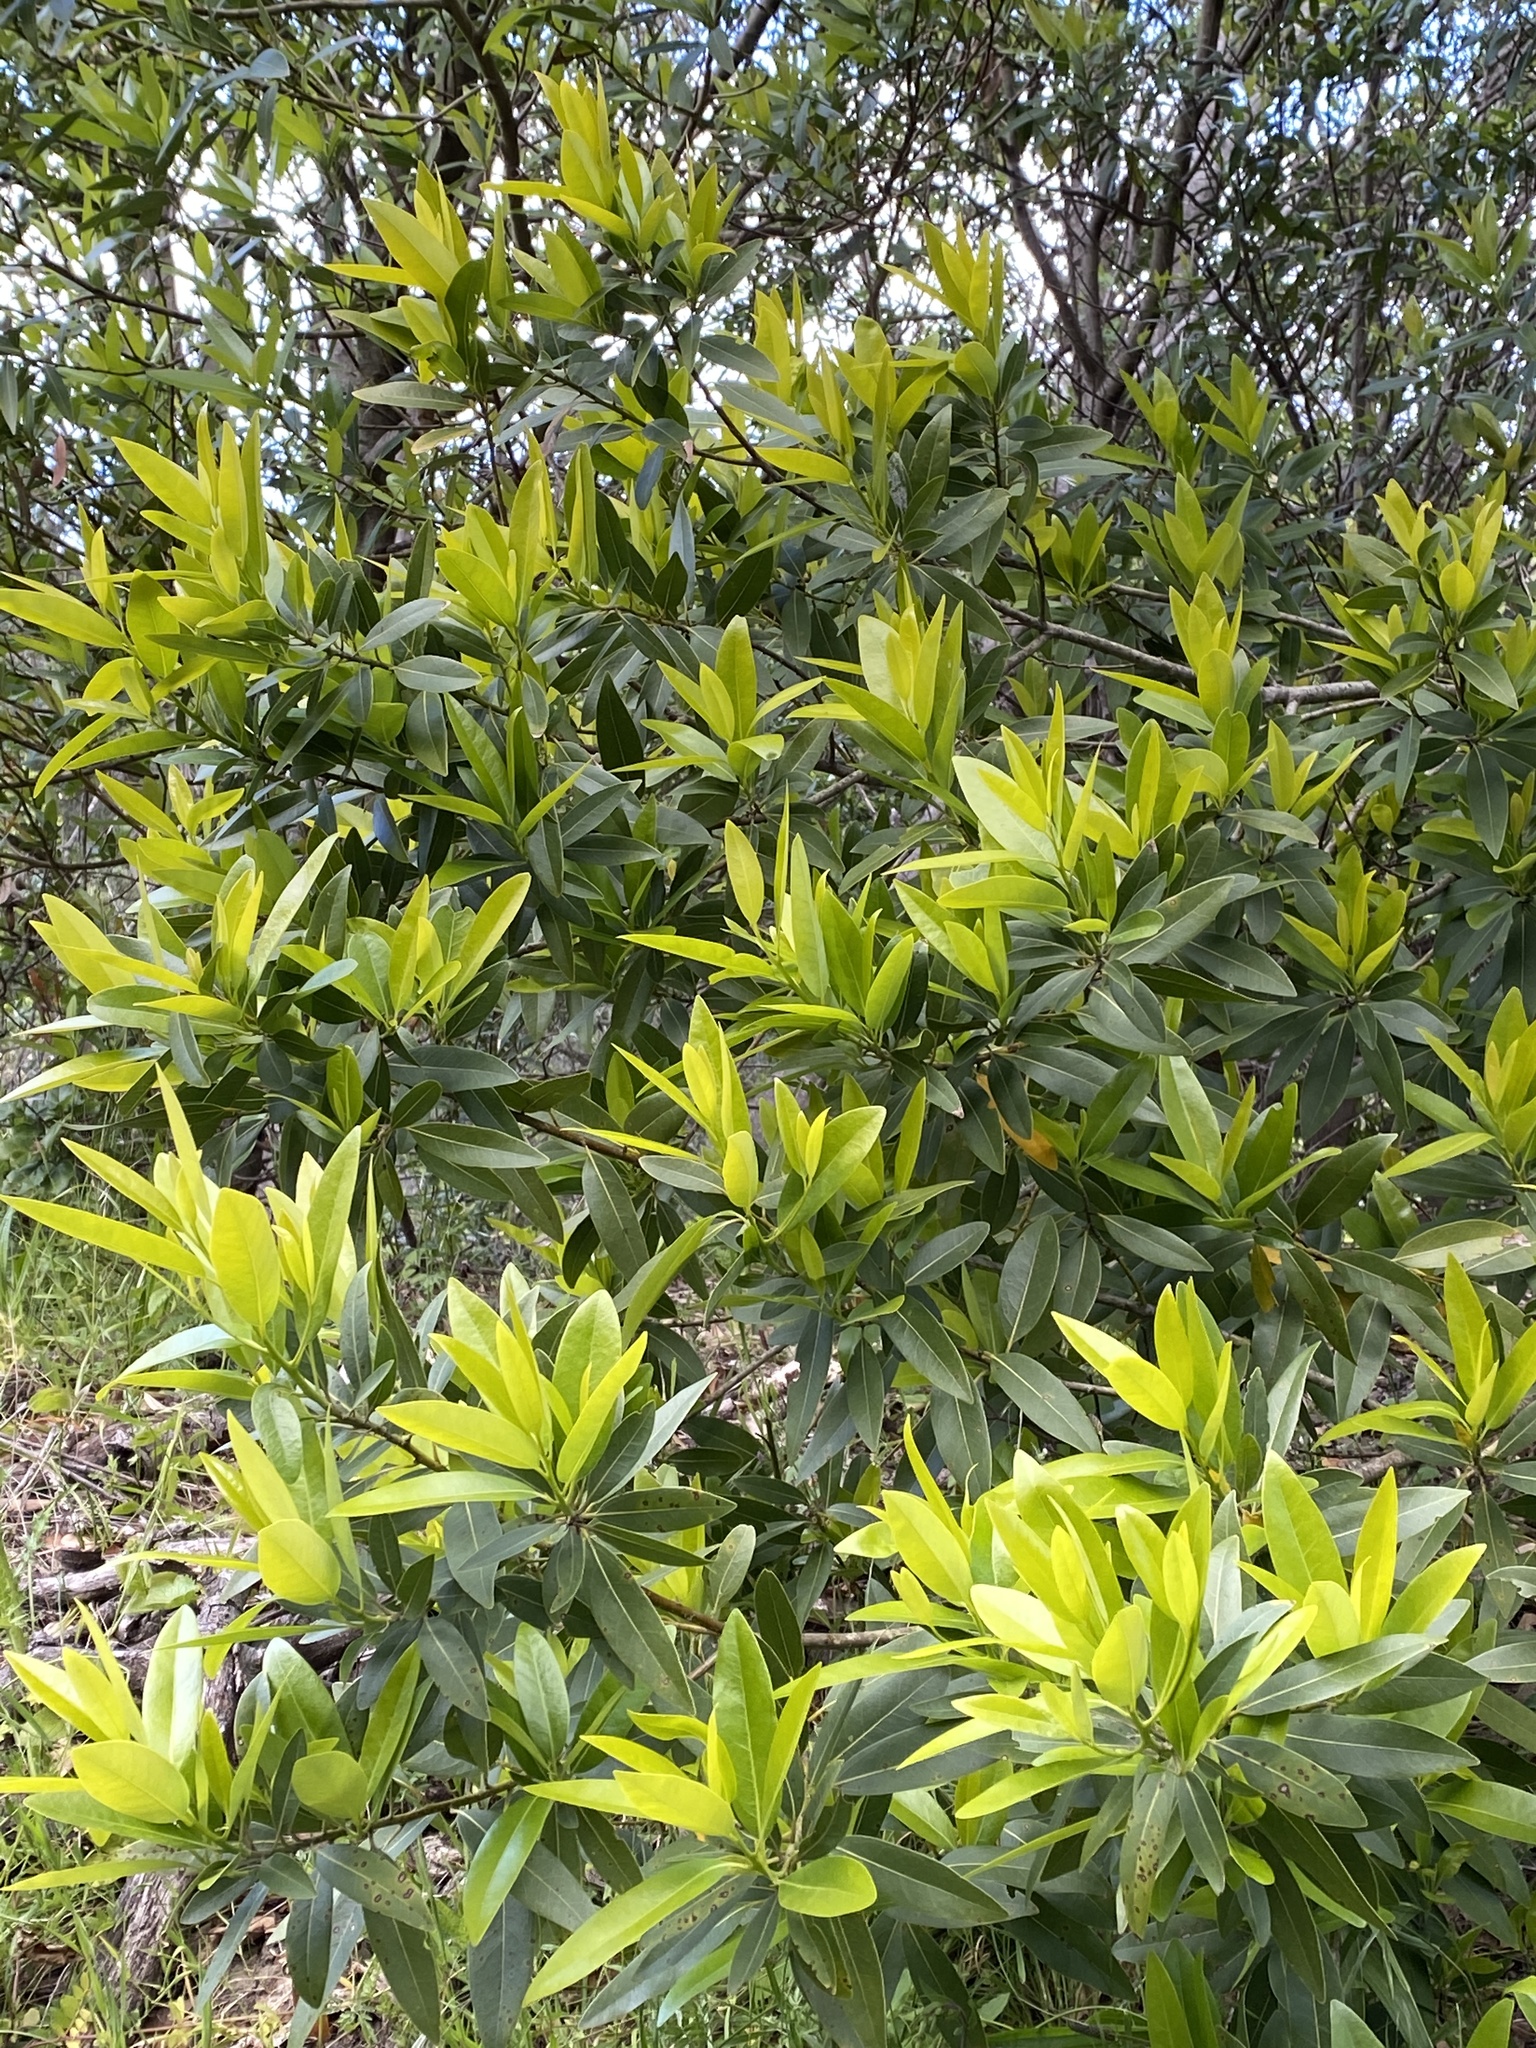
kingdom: Plantae
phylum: Tracheophyta
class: Magnoliopsida
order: Laurales
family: Lauraceae
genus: Umbellularia
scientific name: Umbellularia californica
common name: California bay
